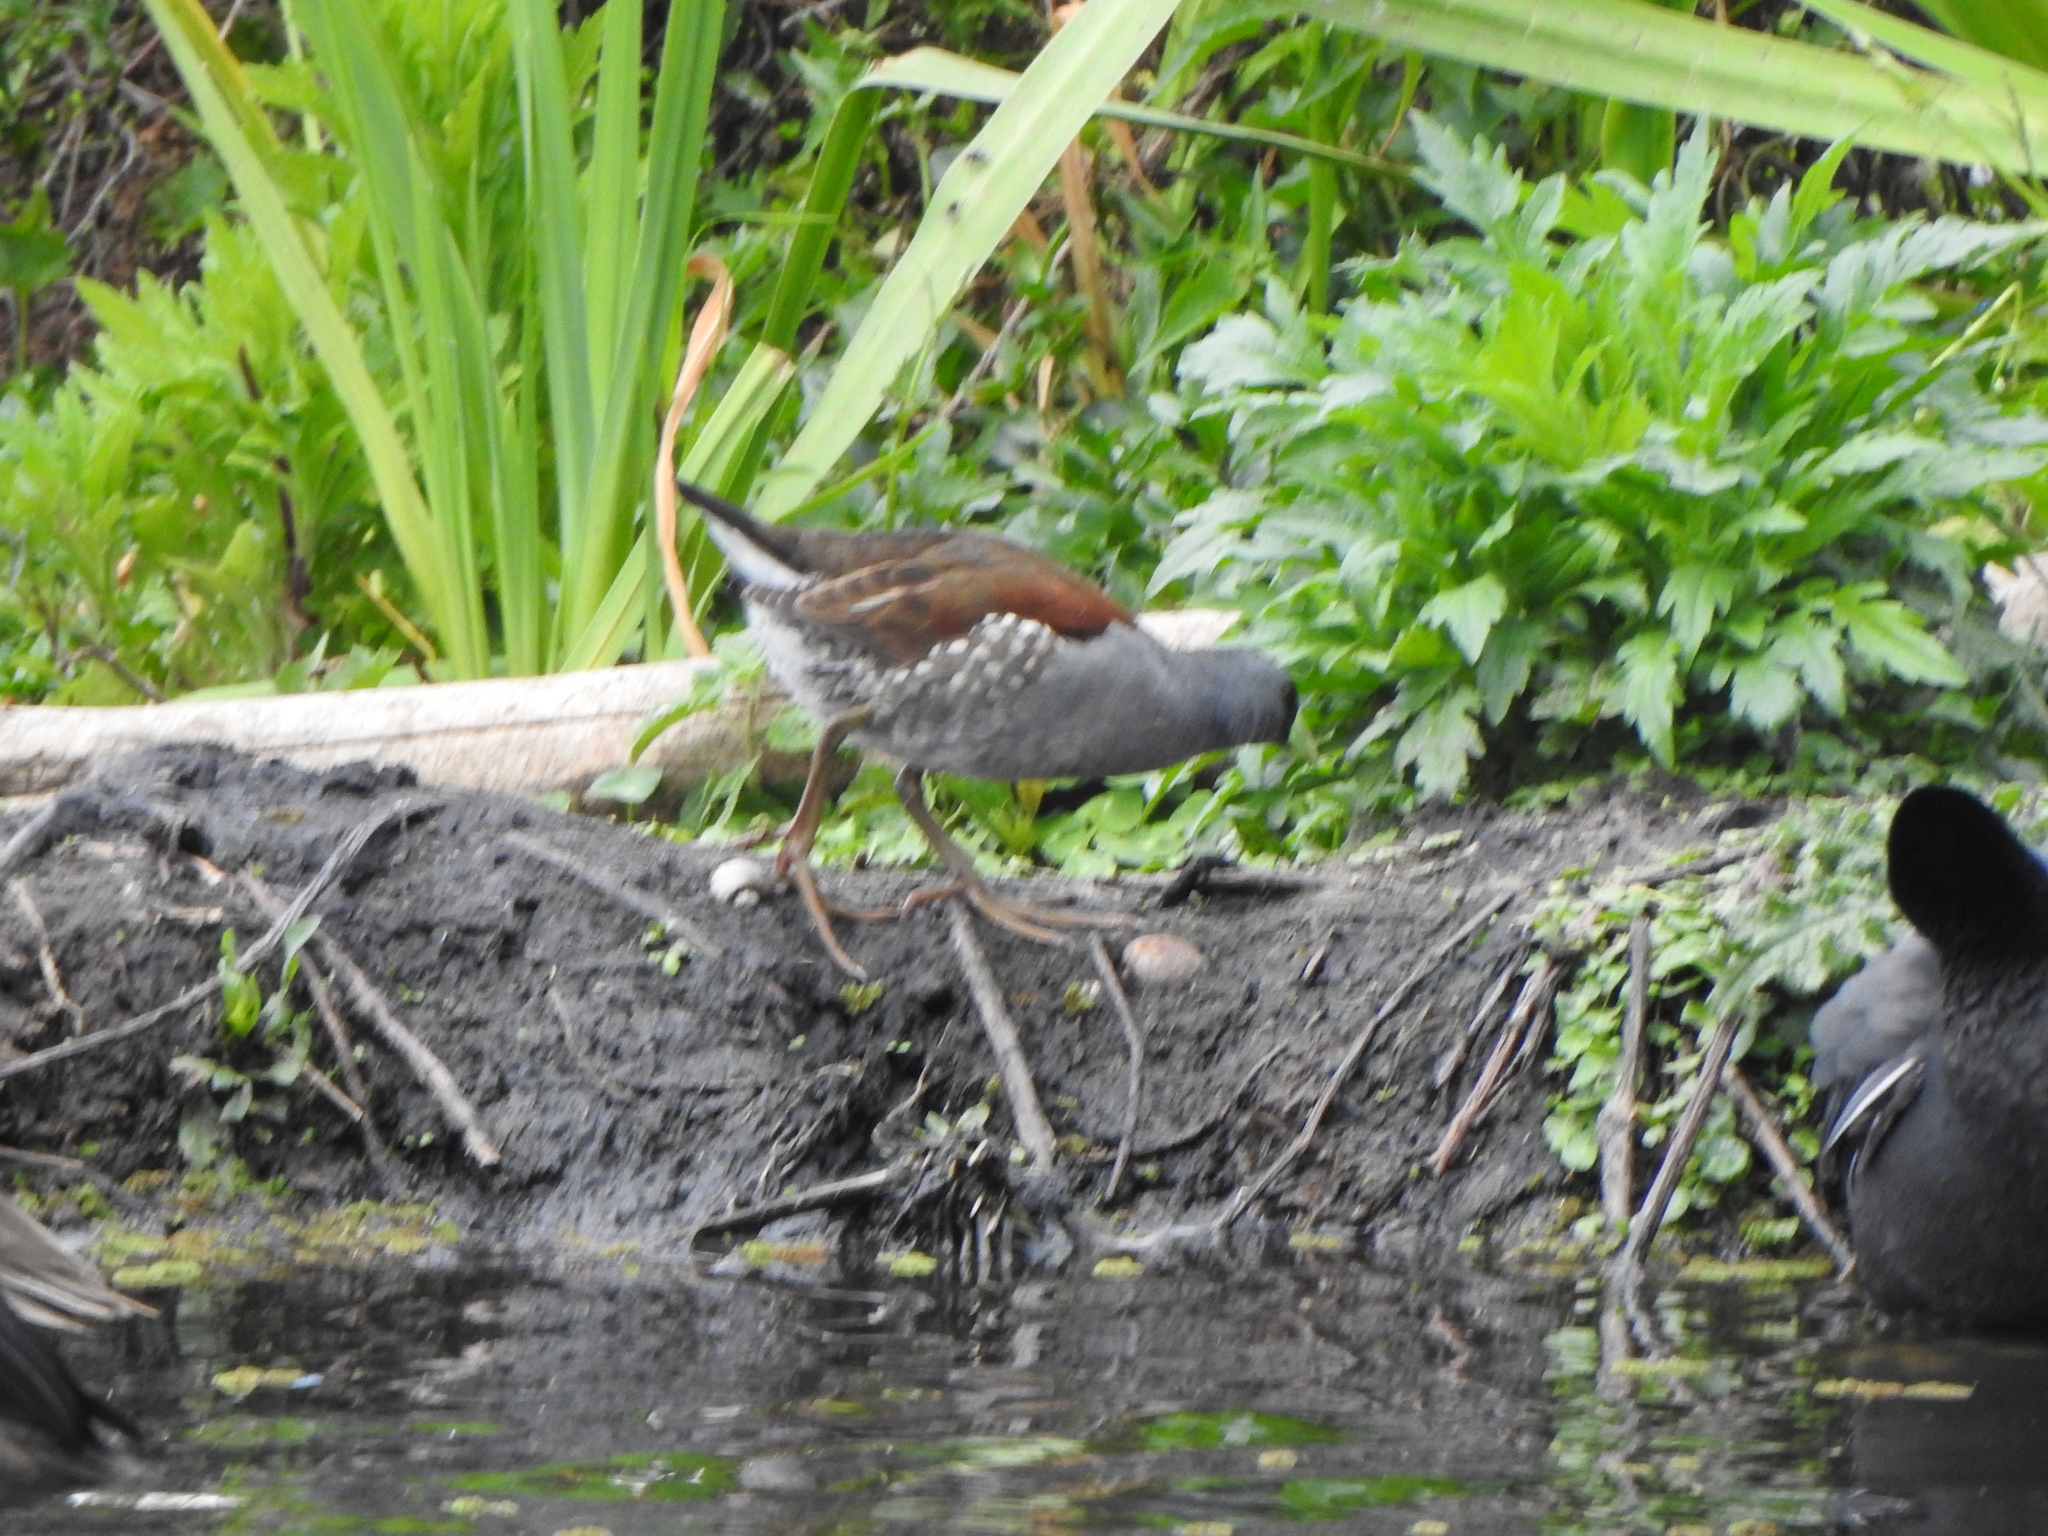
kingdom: Animalia
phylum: Chordata
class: Aves
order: Gruiformes
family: Rallidae
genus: Gallinula
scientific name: Gallinula melanops
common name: Spot-flanked gallinule
